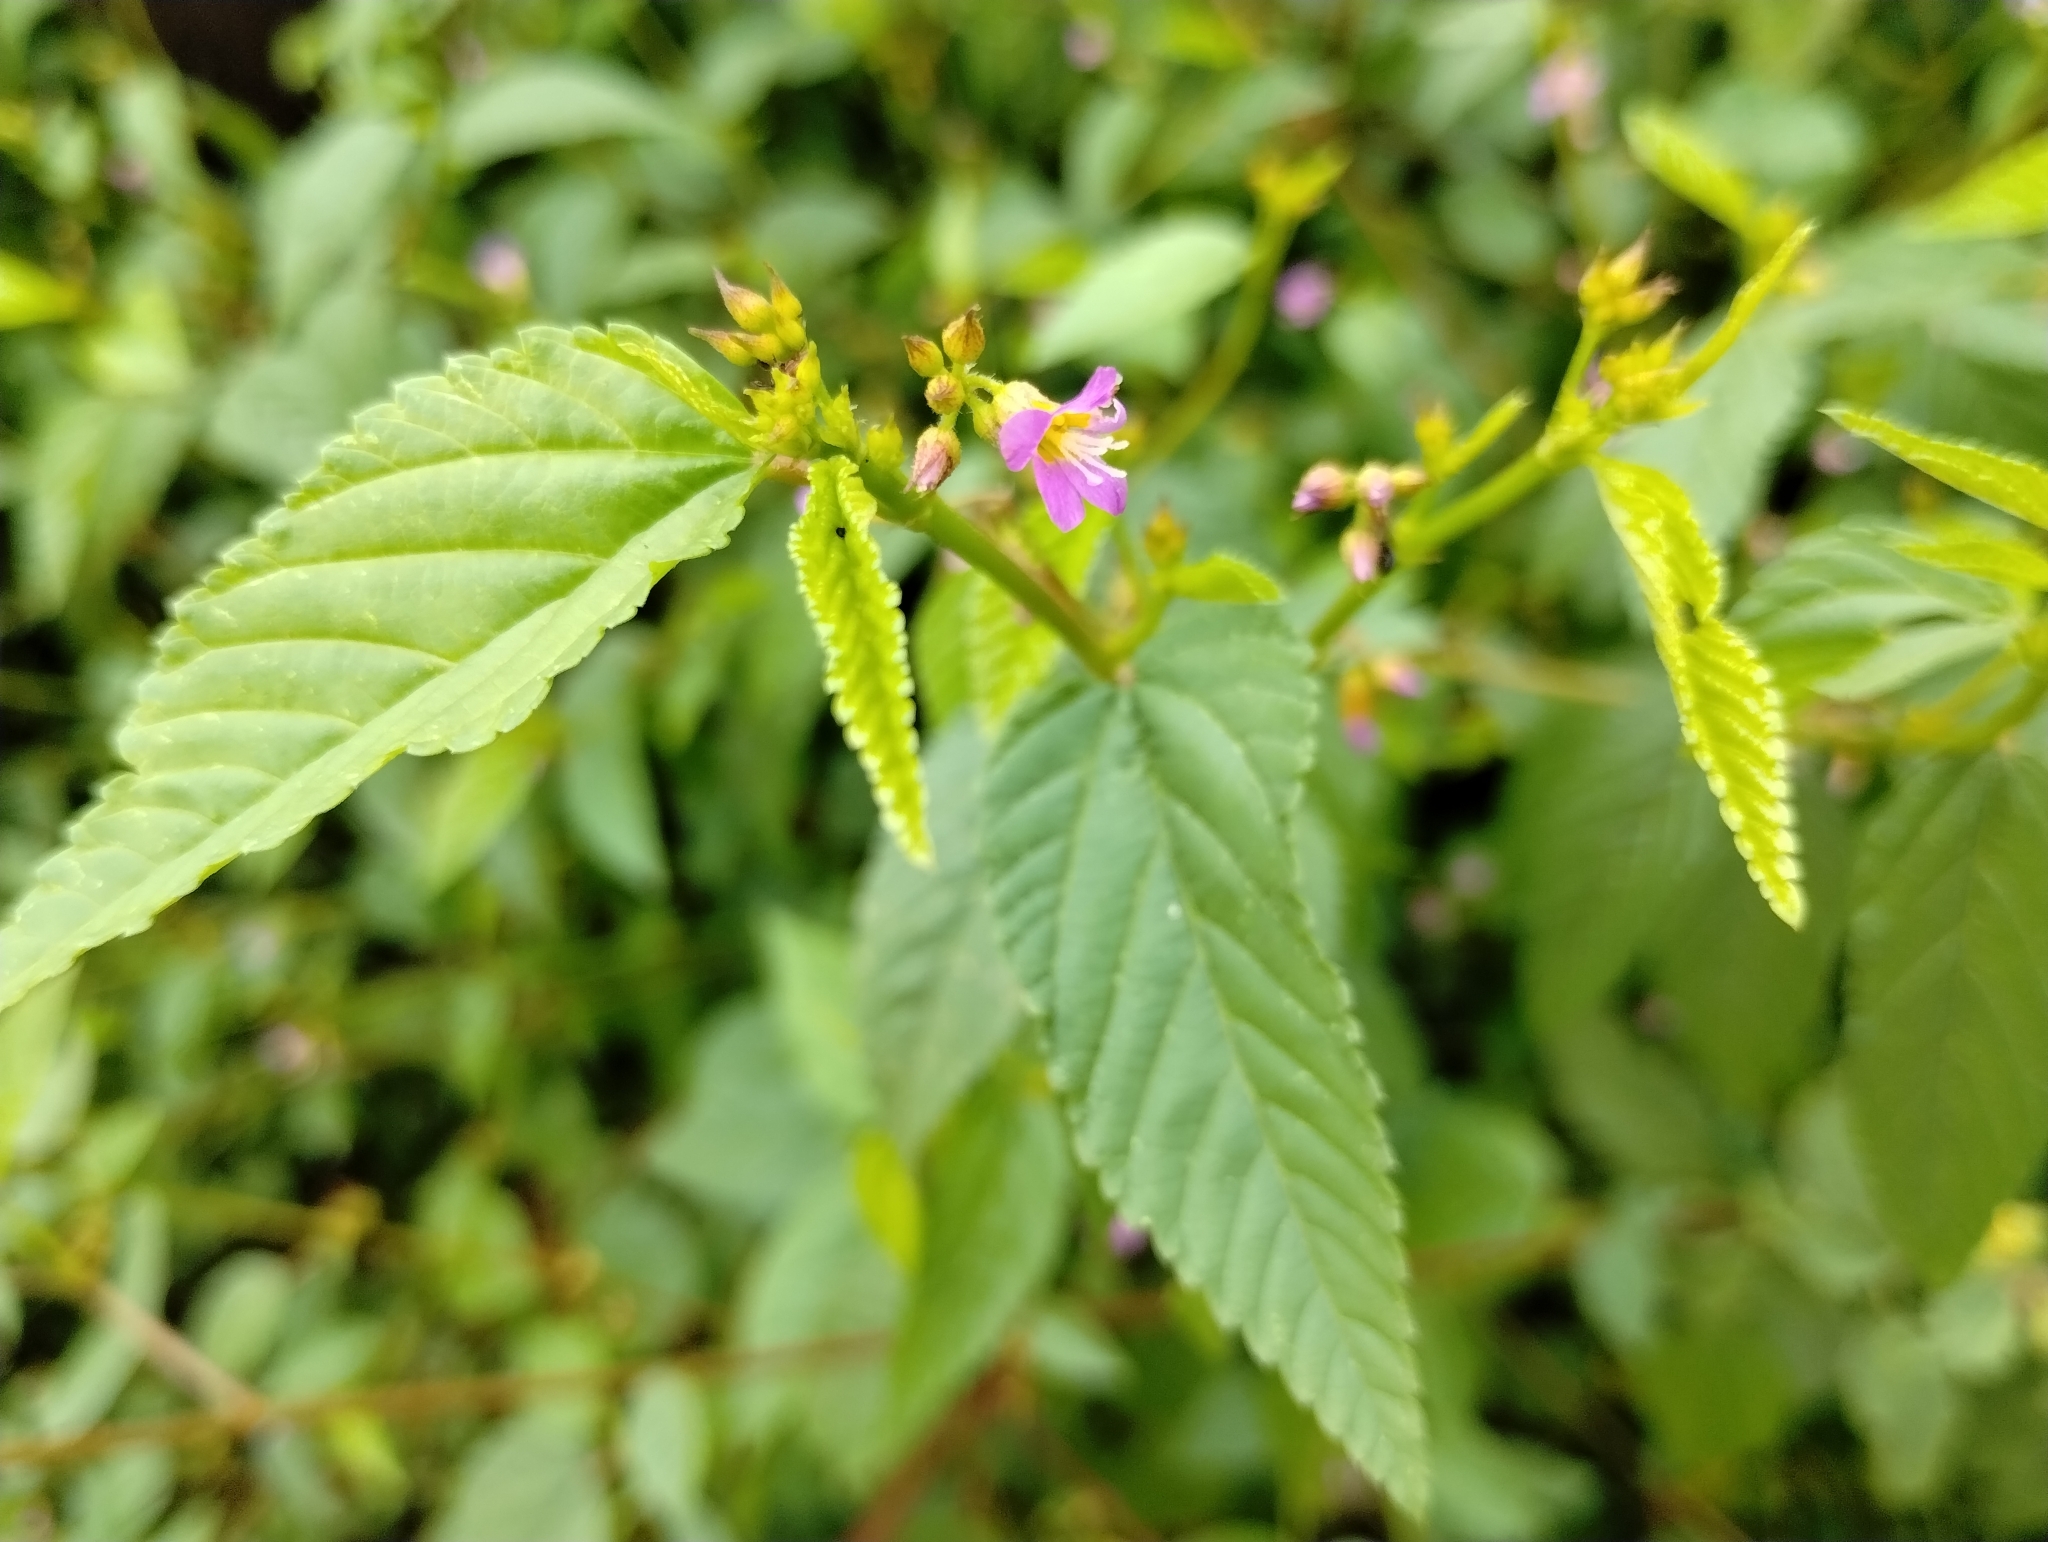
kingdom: Plantae
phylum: Tracheophyta
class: Magnoliopsida
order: Malvales
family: Malvaceae
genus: Melochia
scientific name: Melochia pyramidata
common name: Pyramidflower
